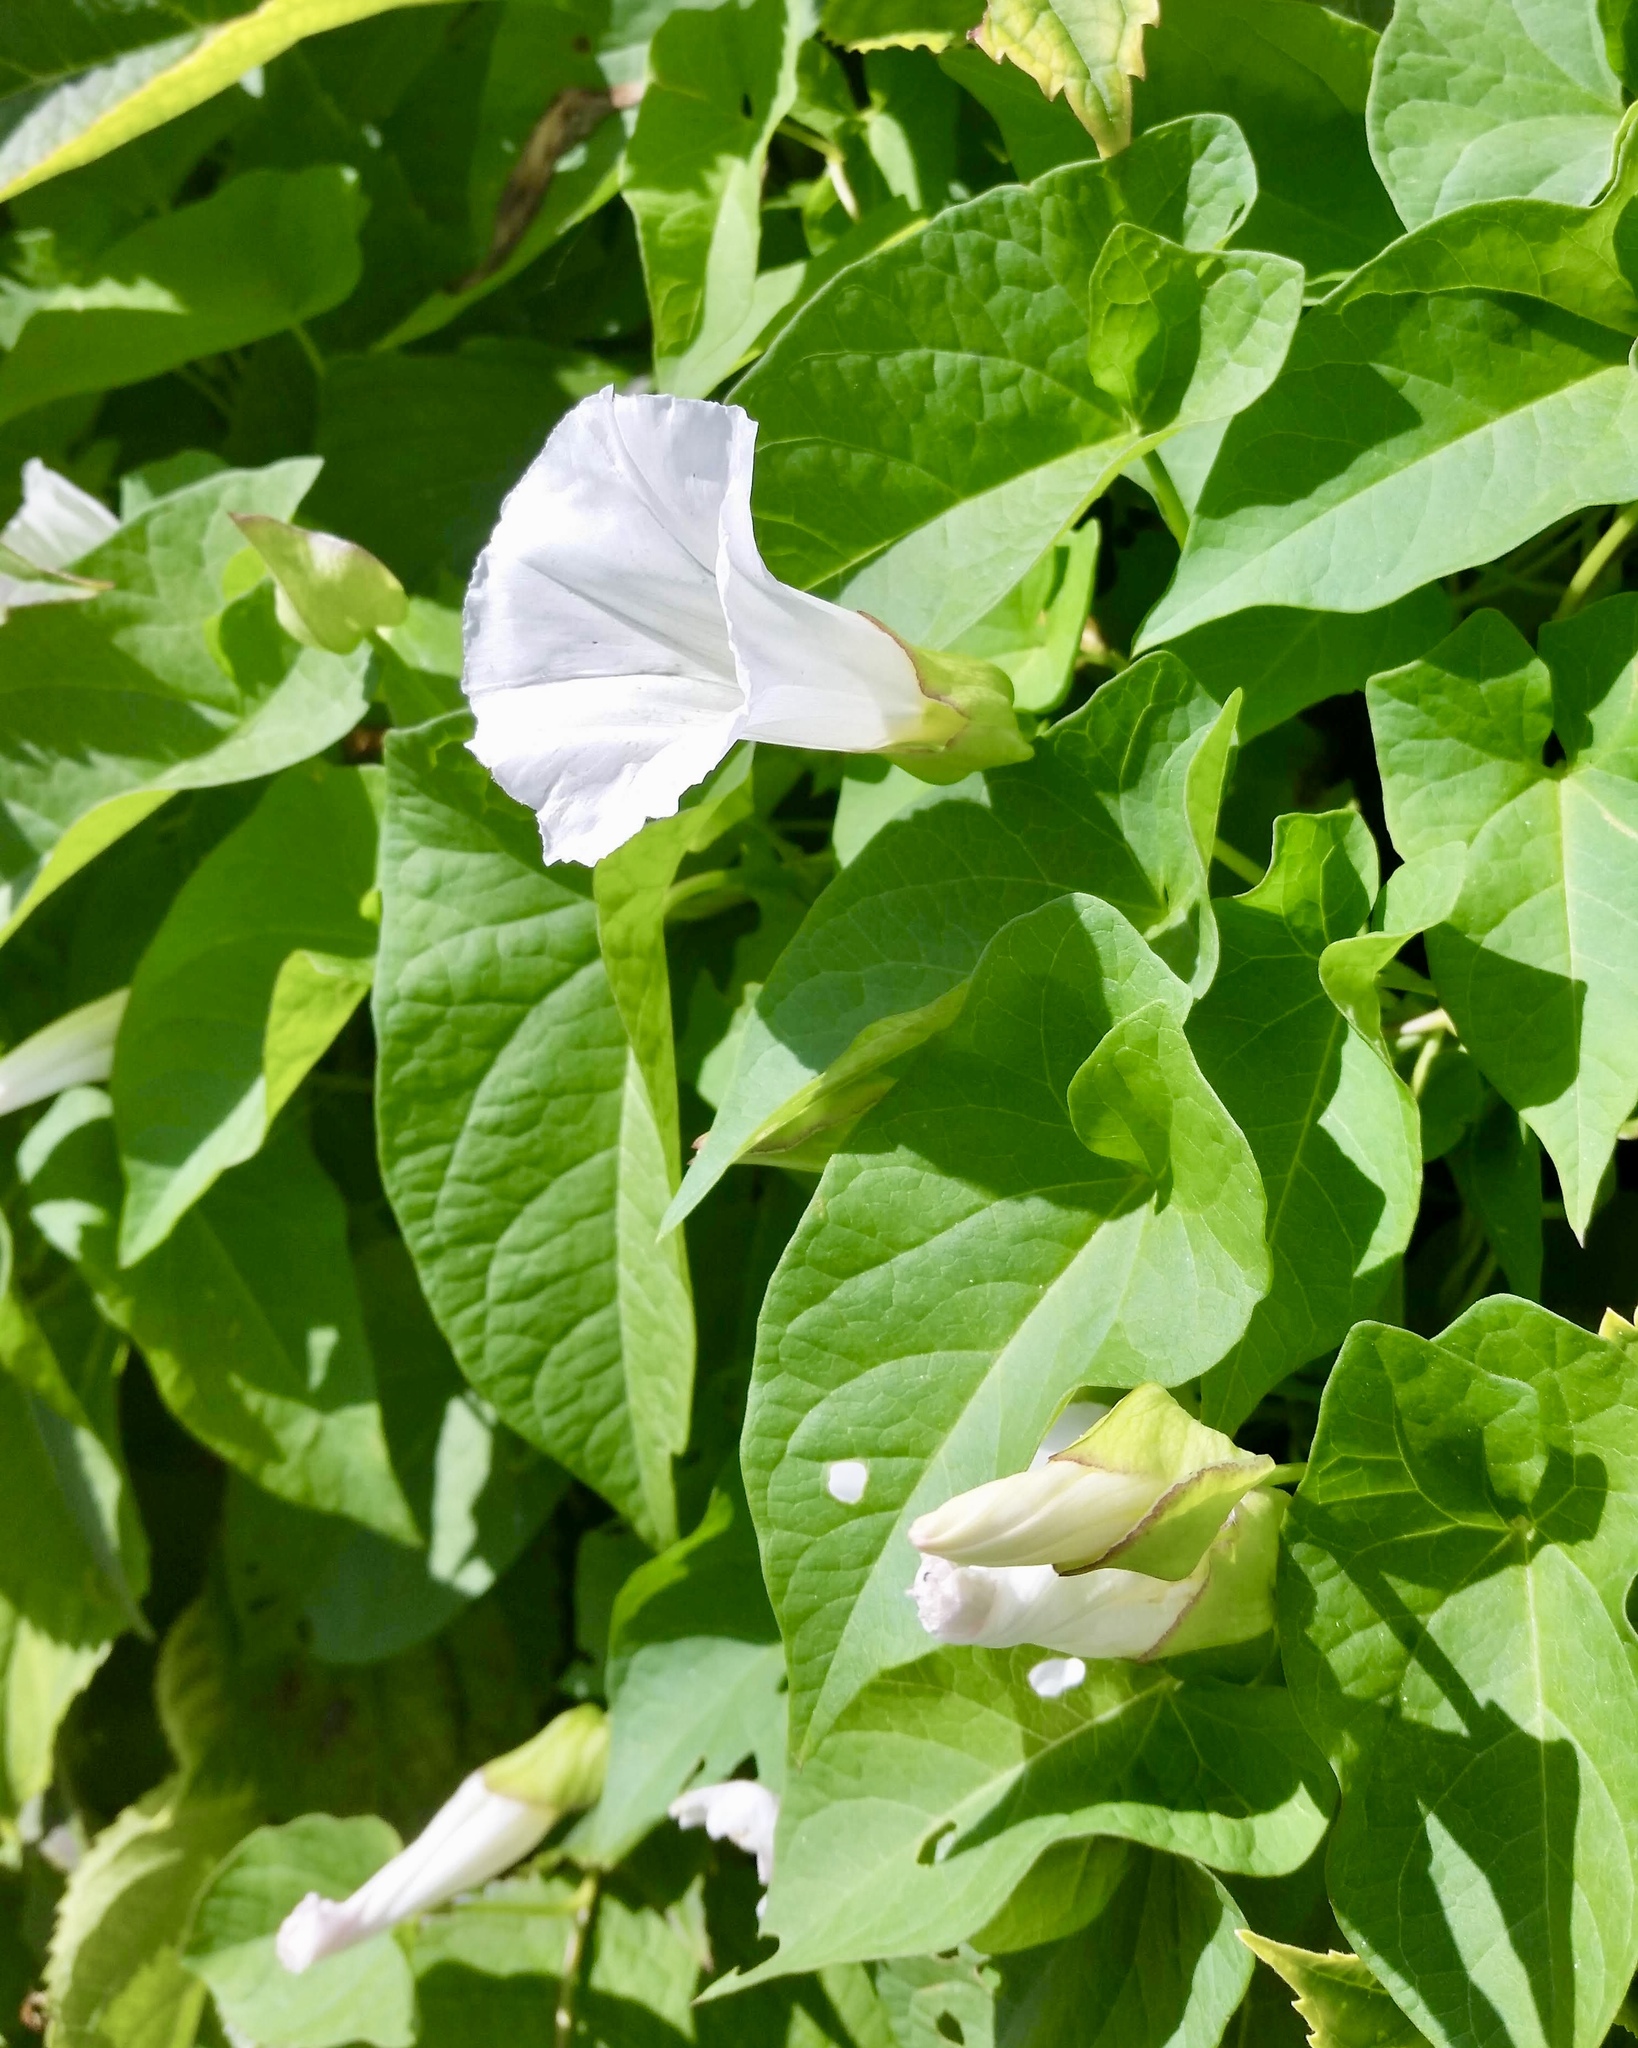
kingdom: Plantae
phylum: Tracheophyta
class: Magnoliopsida
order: Solanales
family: Convolvulaceae
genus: Calystegia
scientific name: Calystegia sepium
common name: Hedge bindweed
